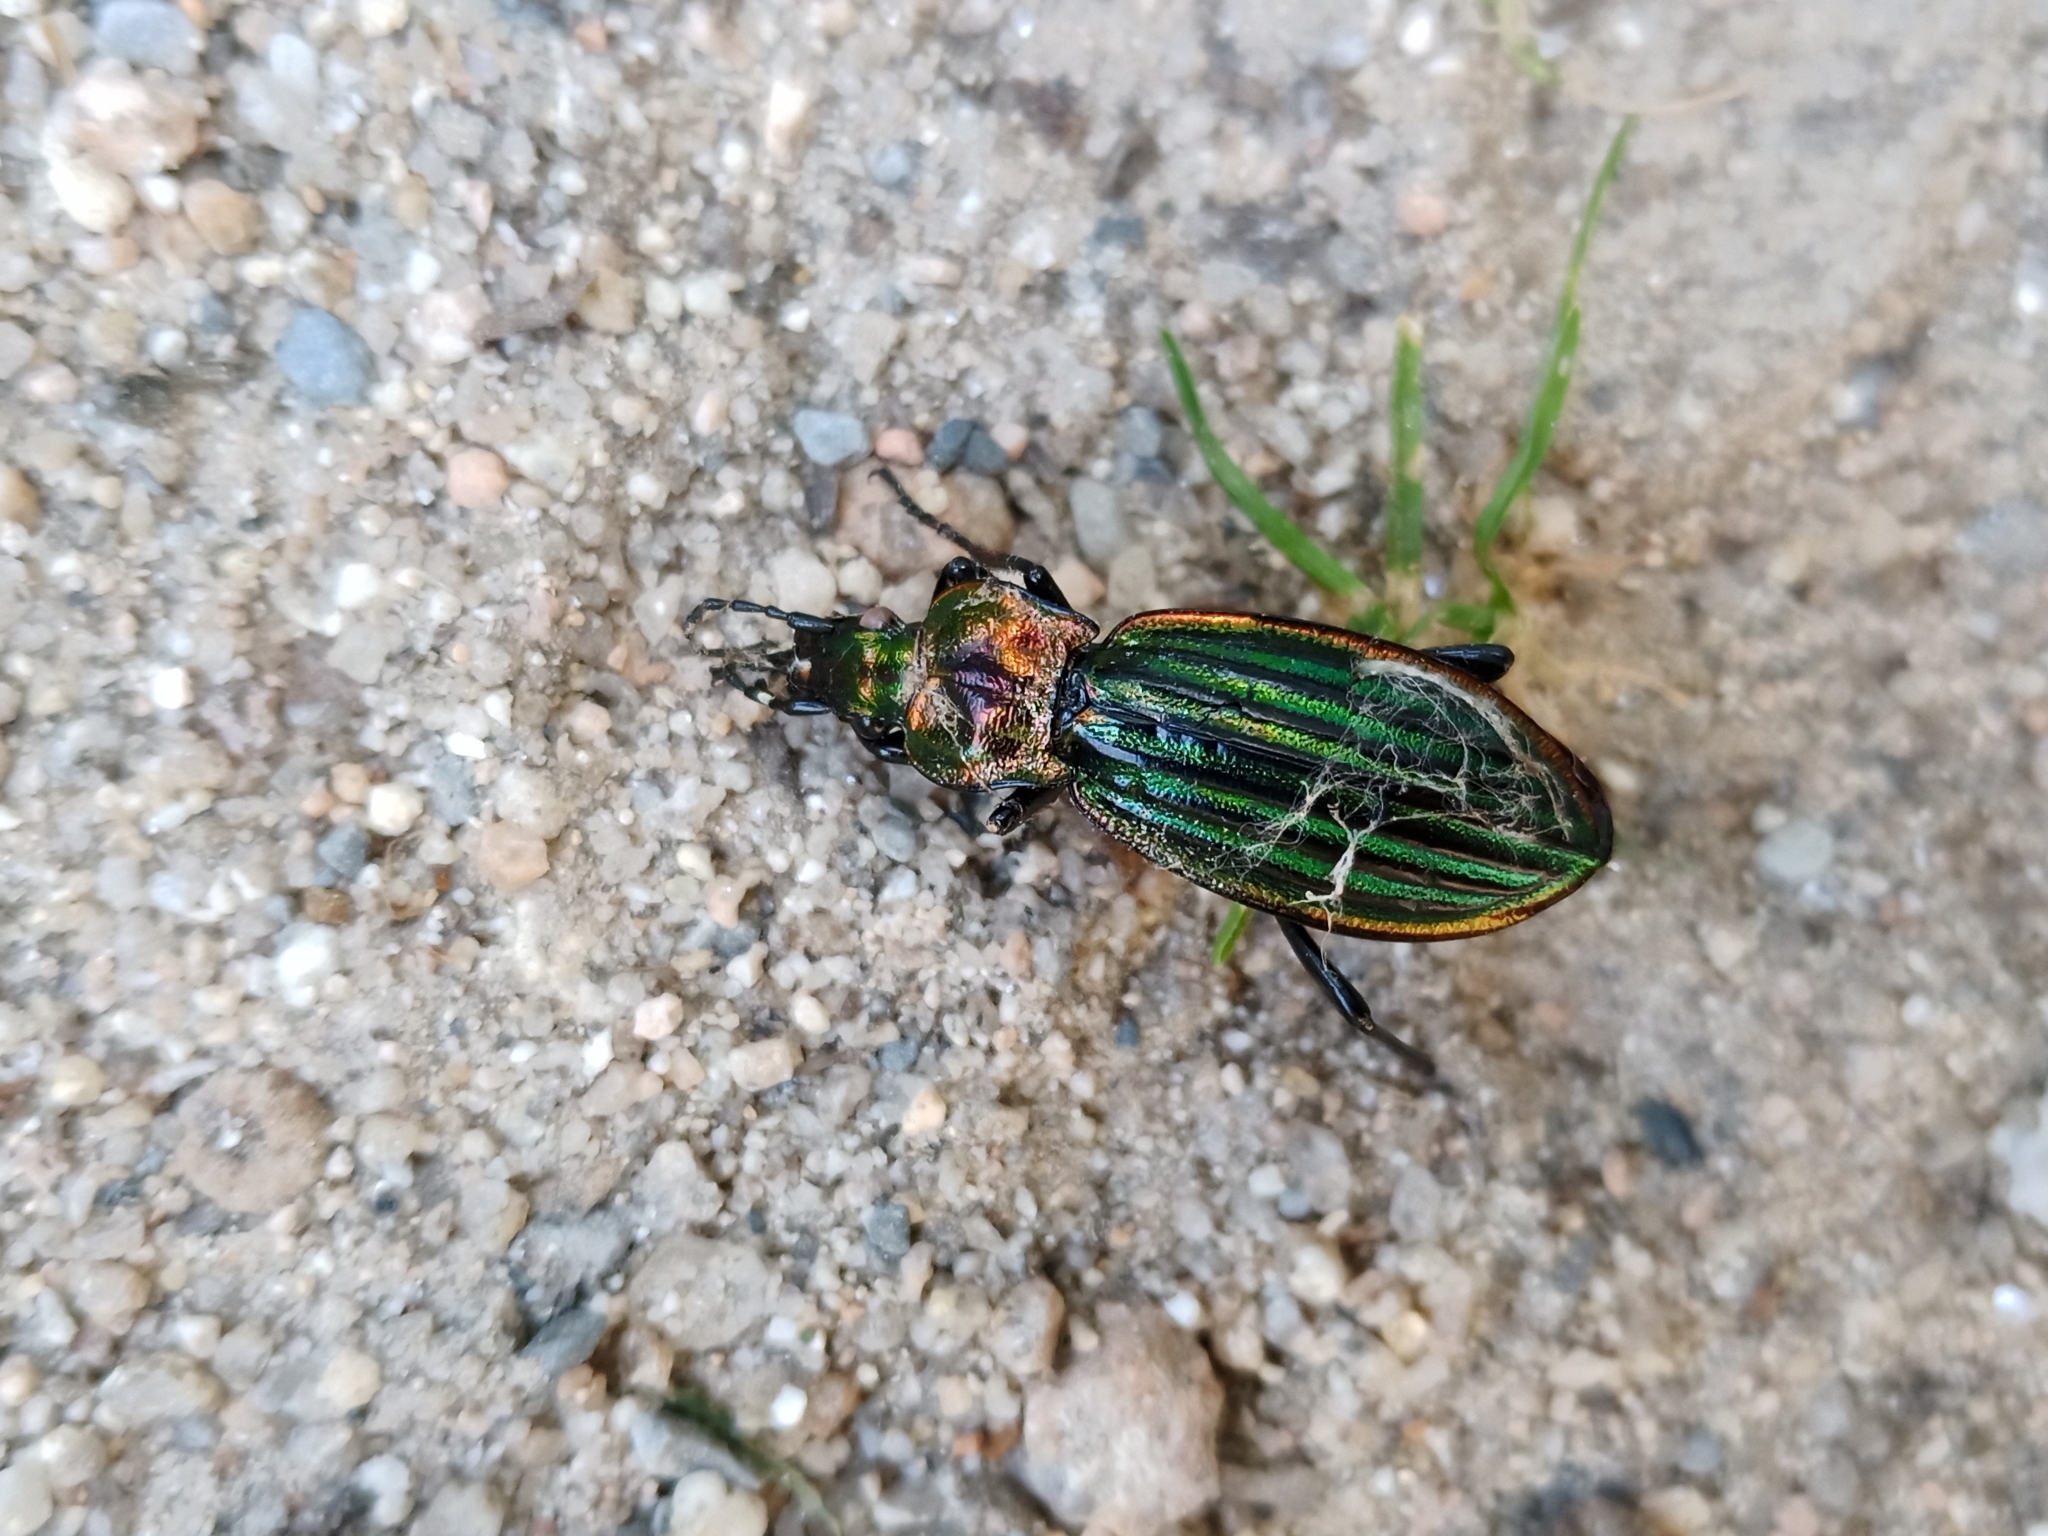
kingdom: Animalia
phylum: Arthropoda
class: Insecta
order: Coleoptera
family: Carabidae
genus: Carabus
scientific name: Carabus strasseri
